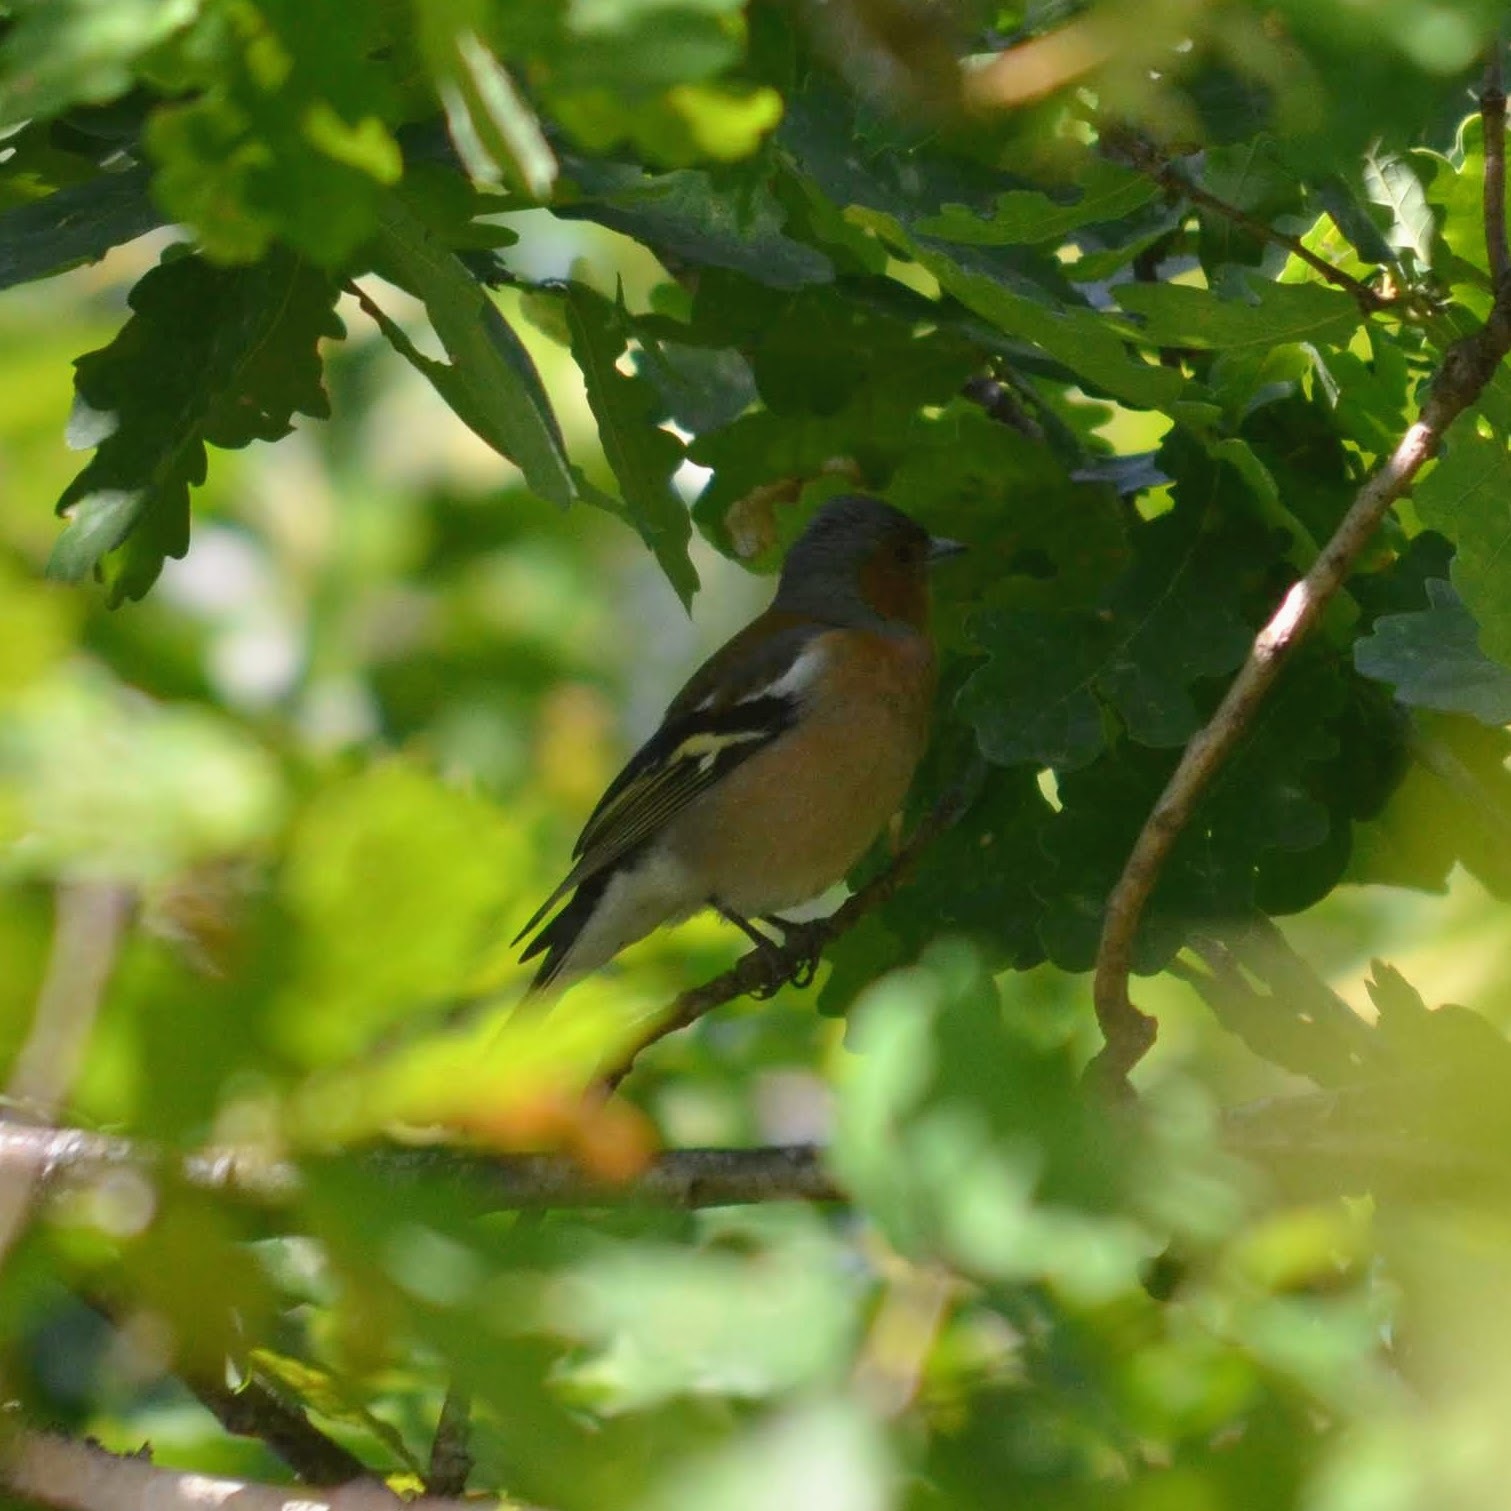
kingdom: Animalia
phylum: Chordata
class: Aves
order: Passeriformes
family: Fringillidae
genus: Fringilla
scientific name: Fringilla coelebs
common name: Common chaffinch
